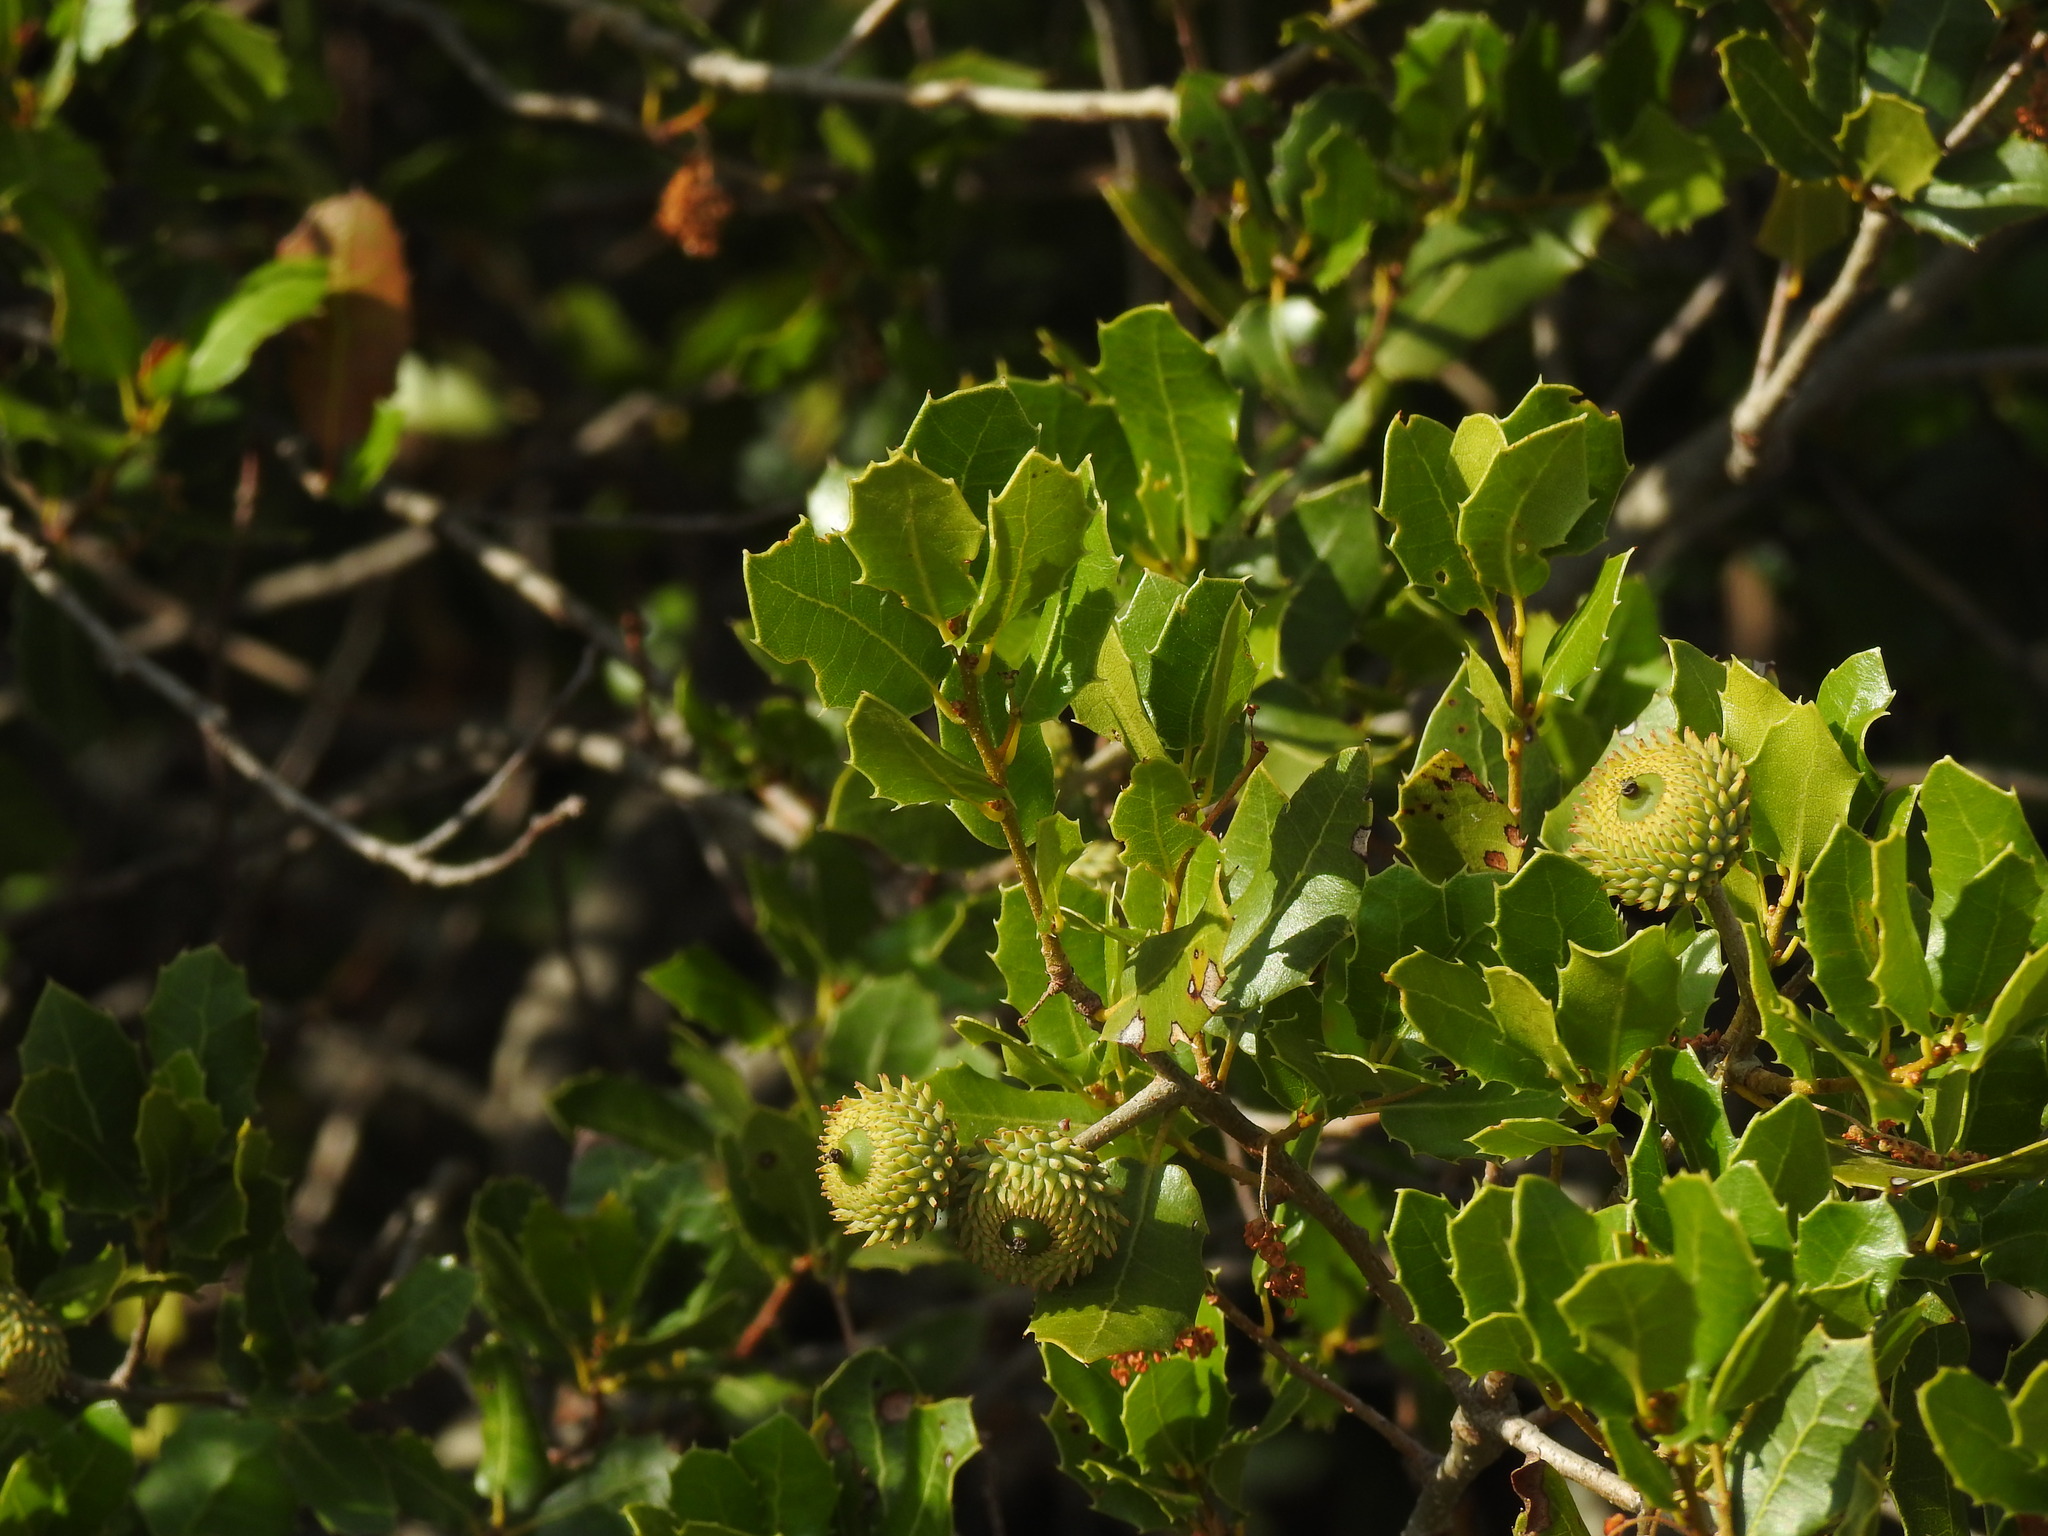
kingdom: Plantae
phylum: Tracheophyta
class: Magnoliopsida
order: Fagales
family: Fagaceae
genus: Quercus
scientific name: Quercus coccifera
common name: Kermes oak
